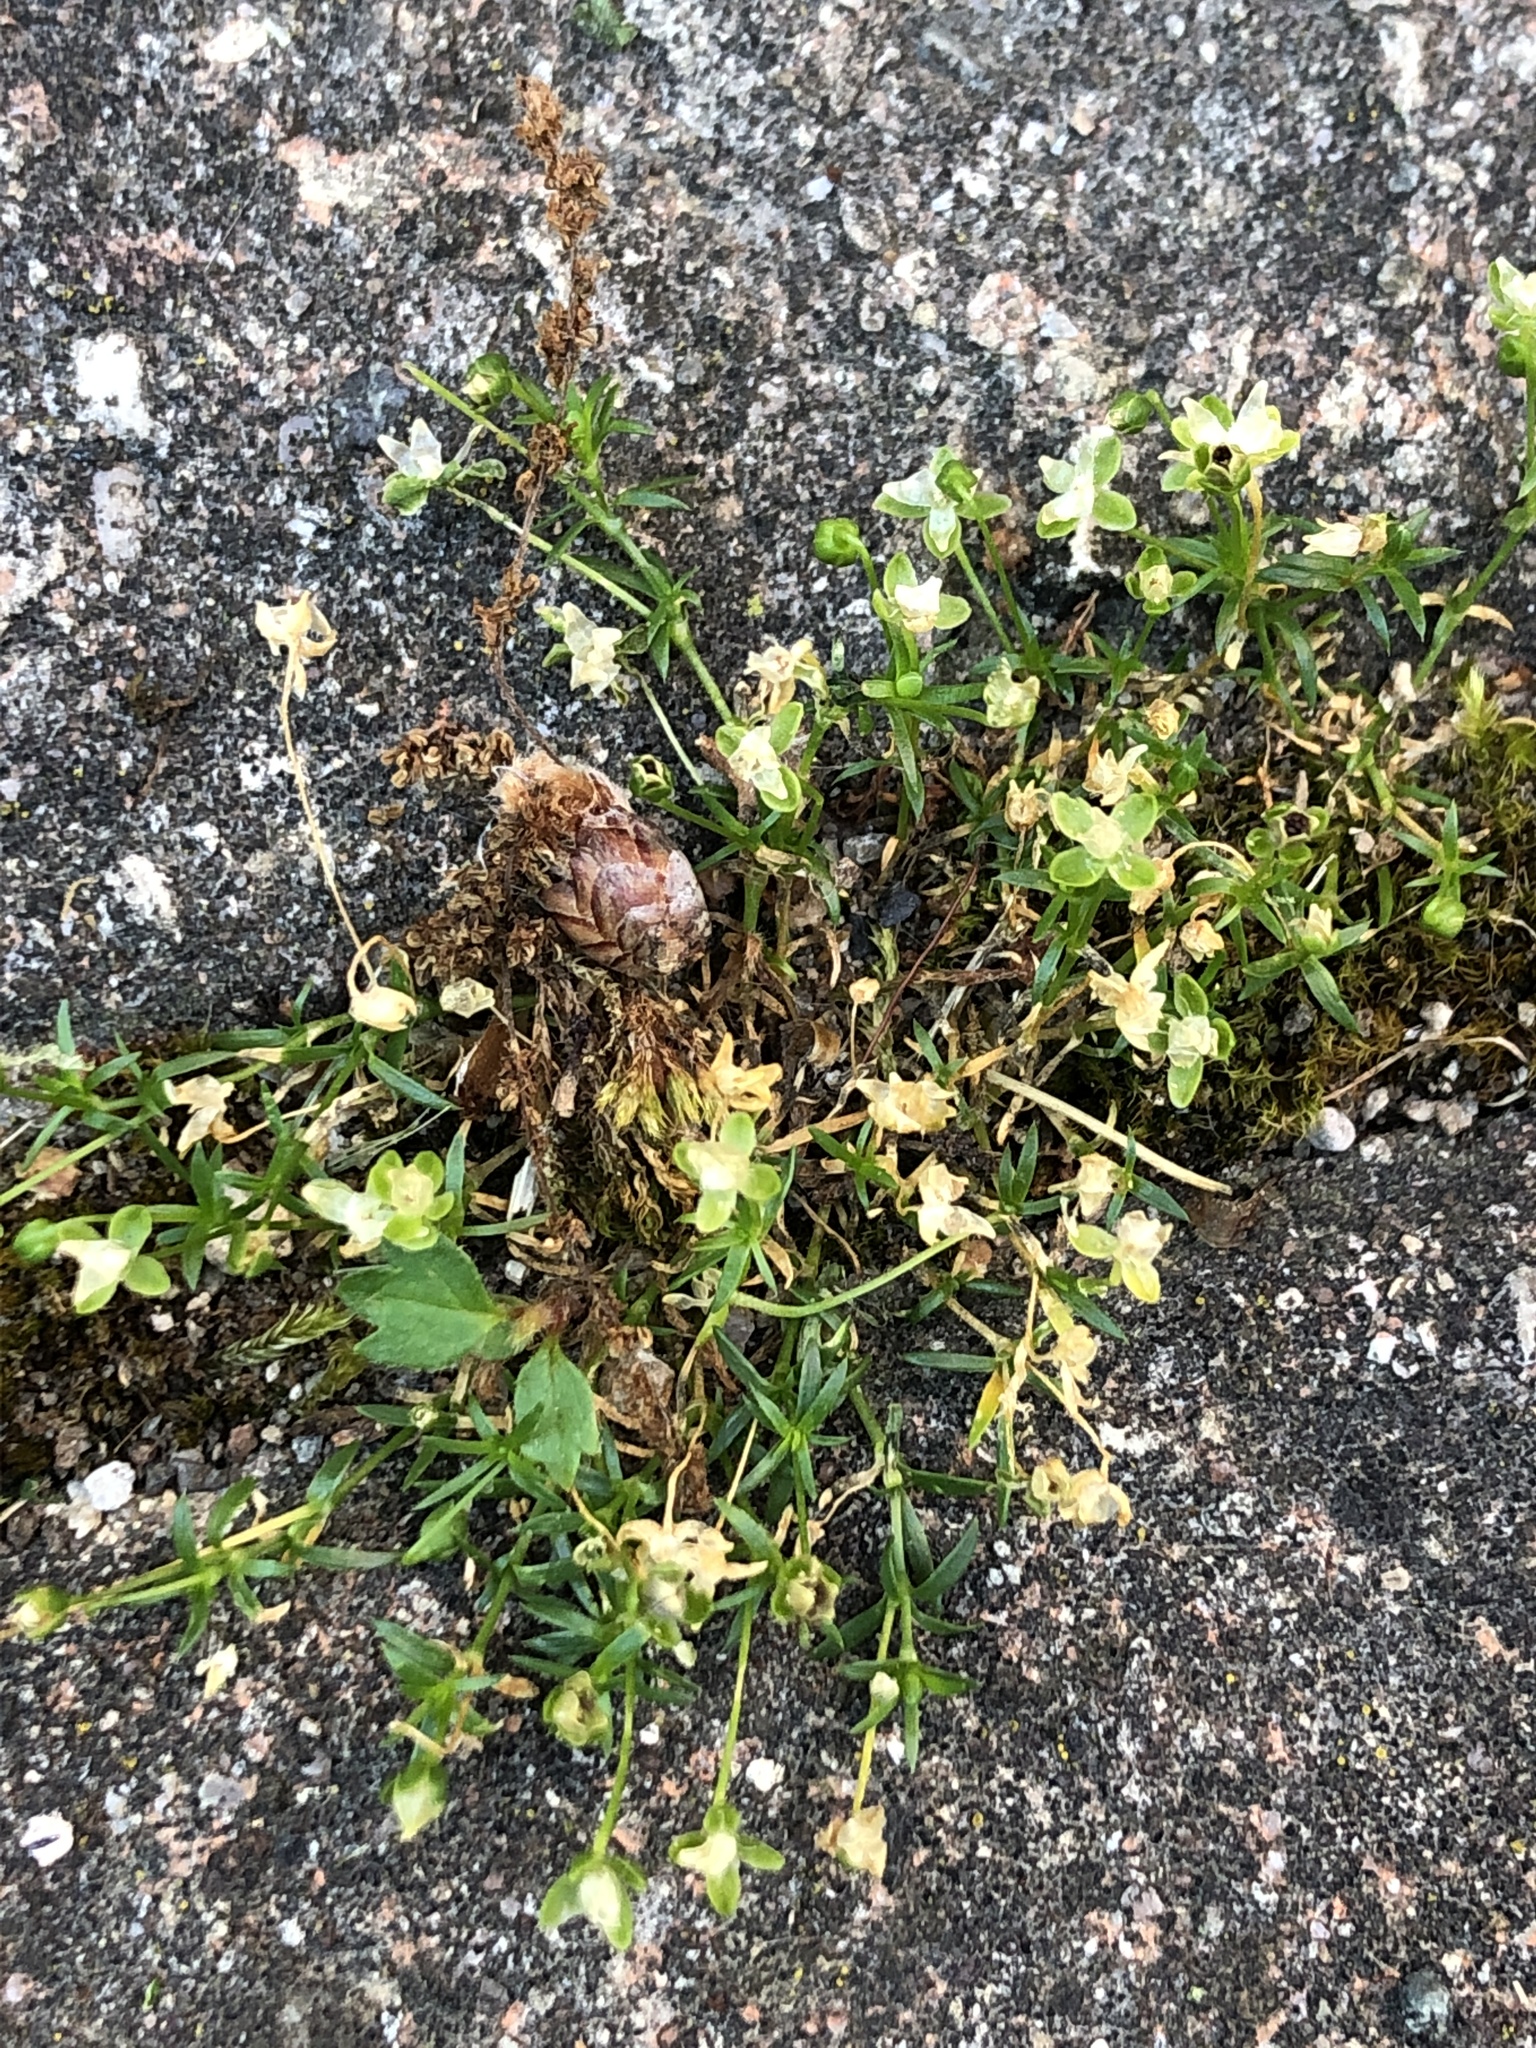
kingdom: Plantae
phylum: Tracheophyta
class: Magnoliopsida
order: Caryophyllales
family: Caryophyllaceae
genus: Sagina
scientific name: Sagina procumbens
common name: Procumbent pearlwort
